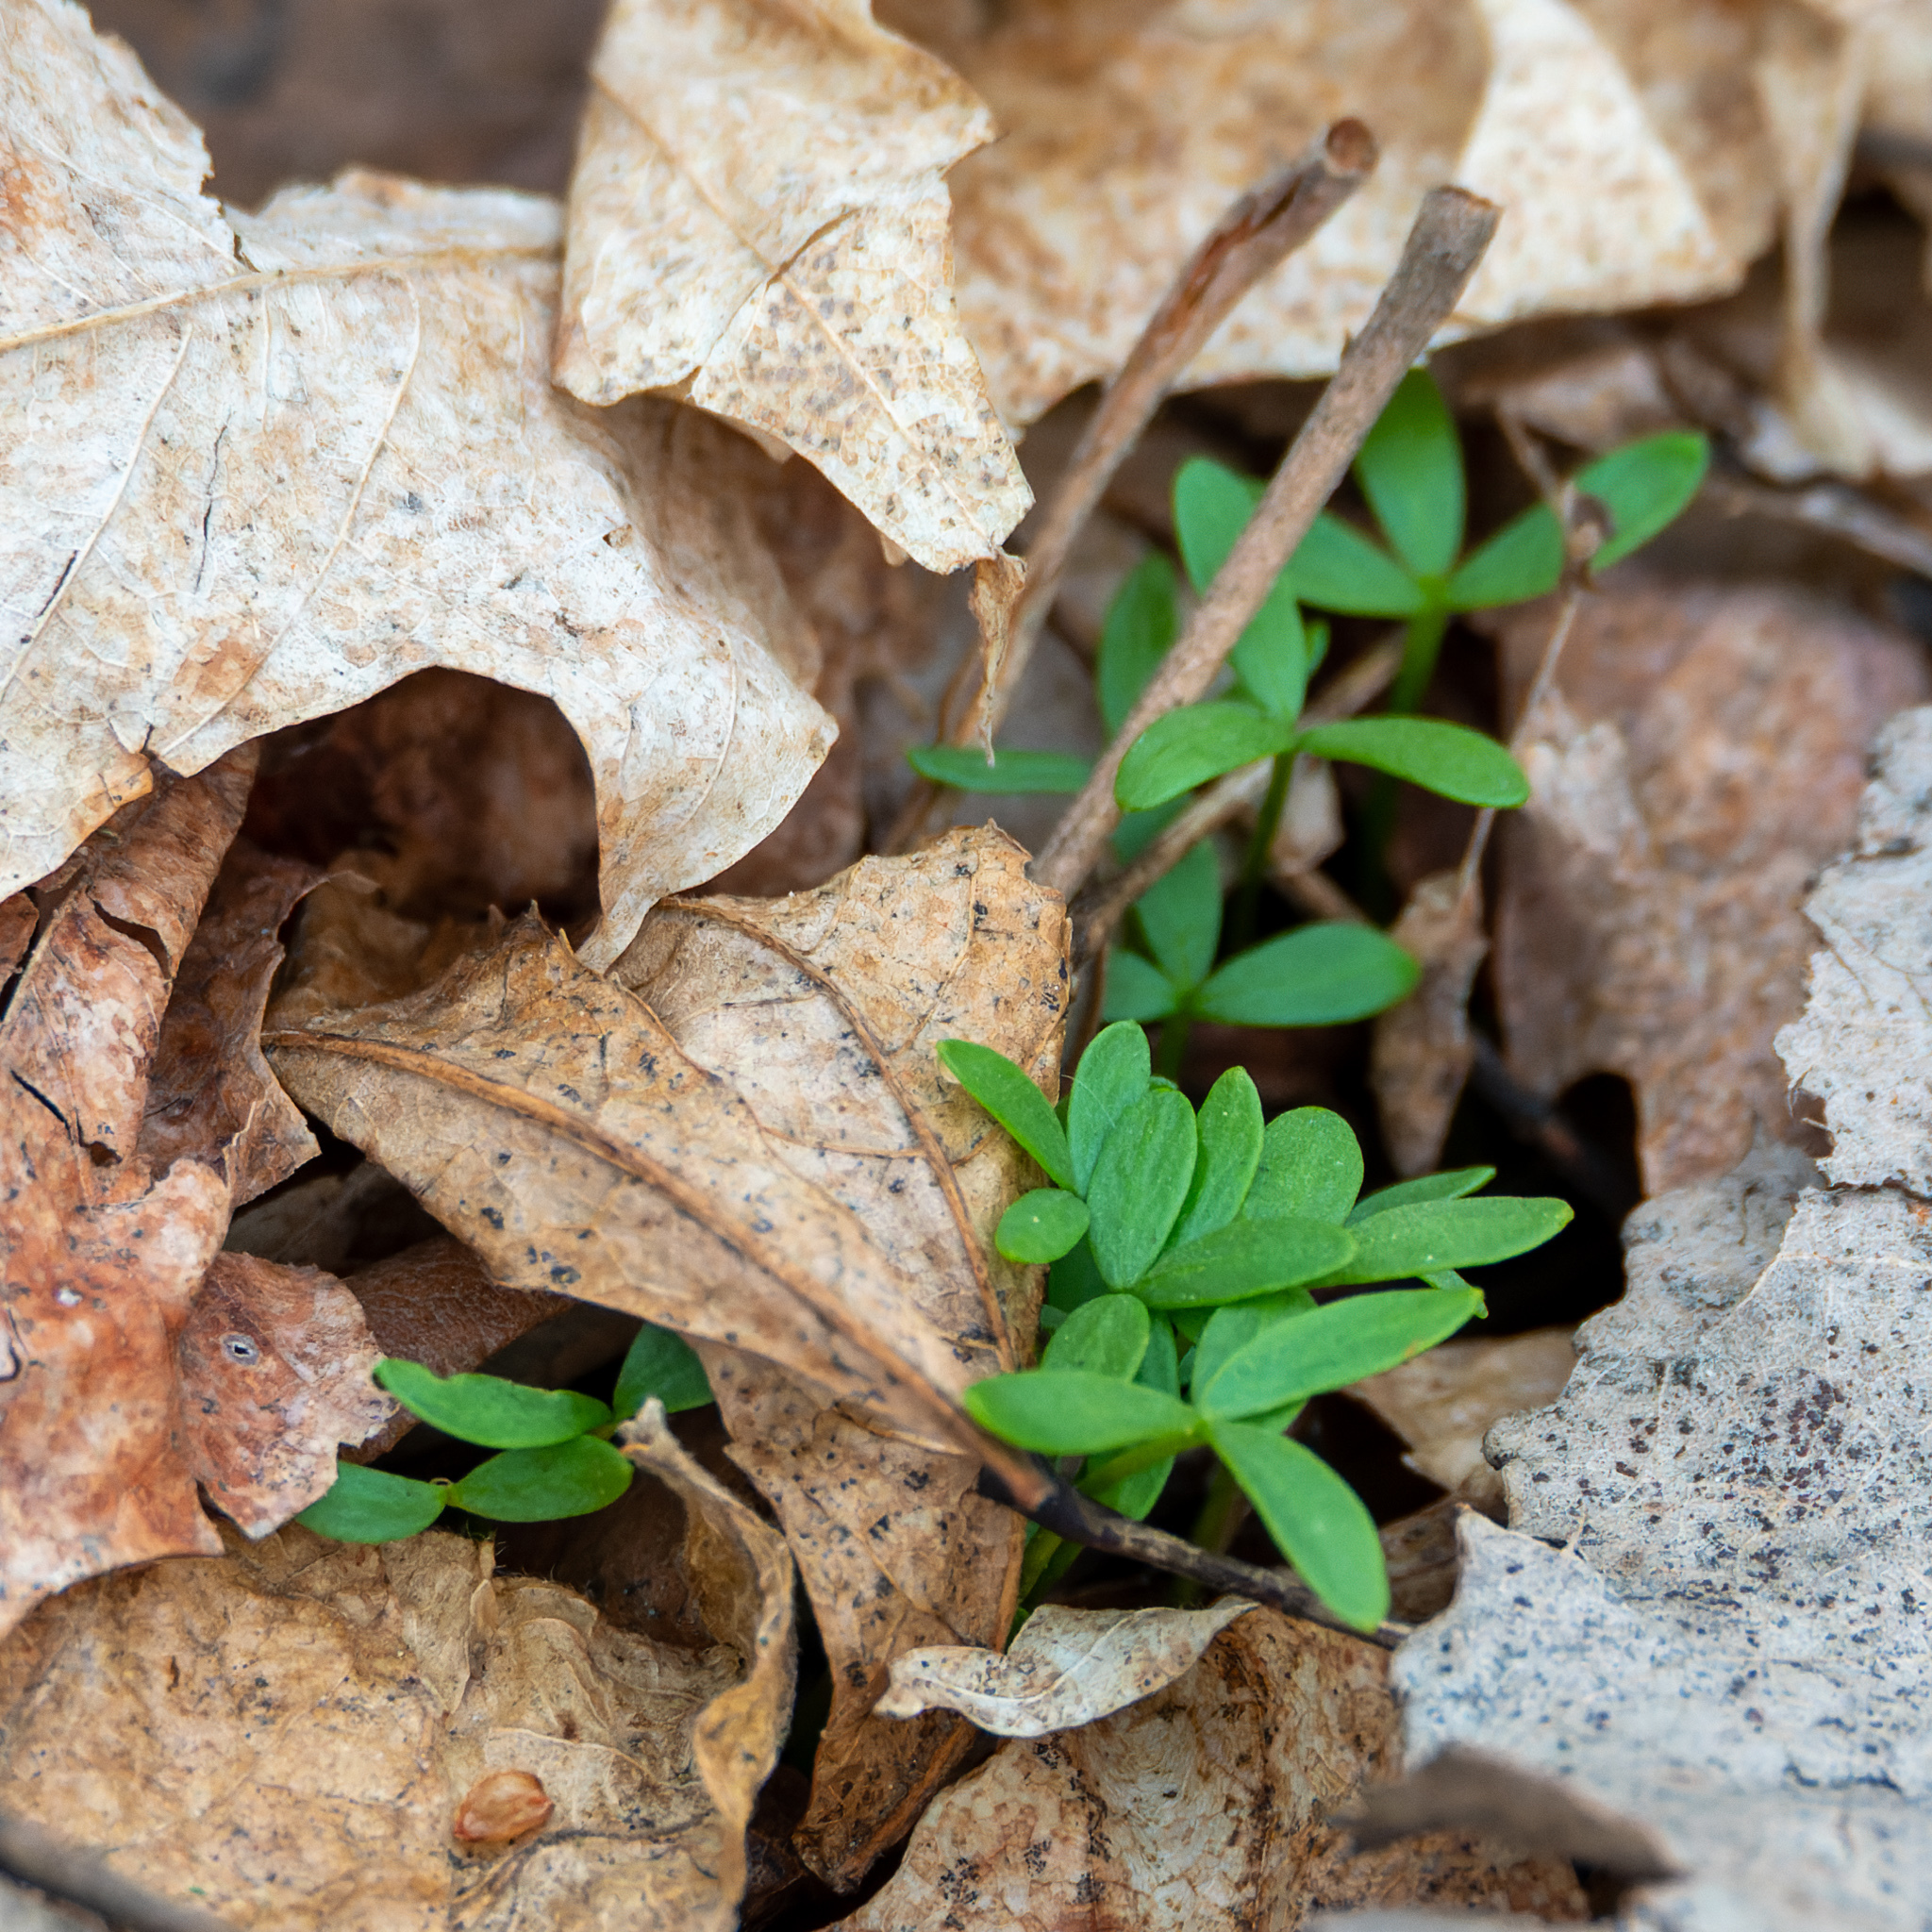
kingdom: Plantae
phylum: Tracheophyta
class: Magnoliopsida
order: Brassicales
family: Limnanthaceae
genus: Floerkea
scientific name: Floerkea proserpinacoides
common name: False mermaid
